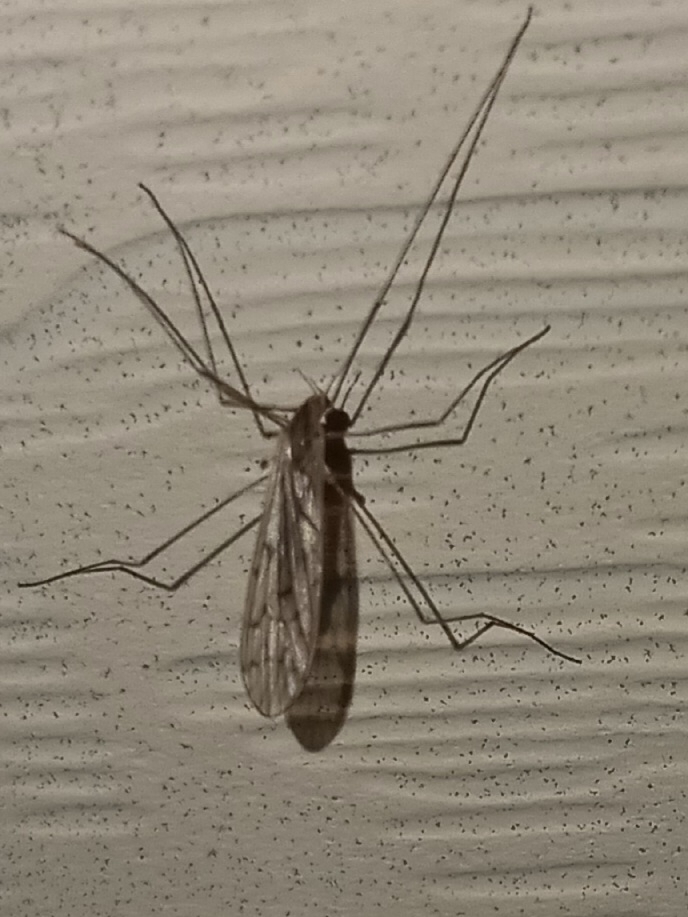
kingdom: Animalia
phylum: Arthropoda
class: Insecta
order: Diptera
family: Limoniidae
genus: Symplecta
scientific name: Symplecta cana
